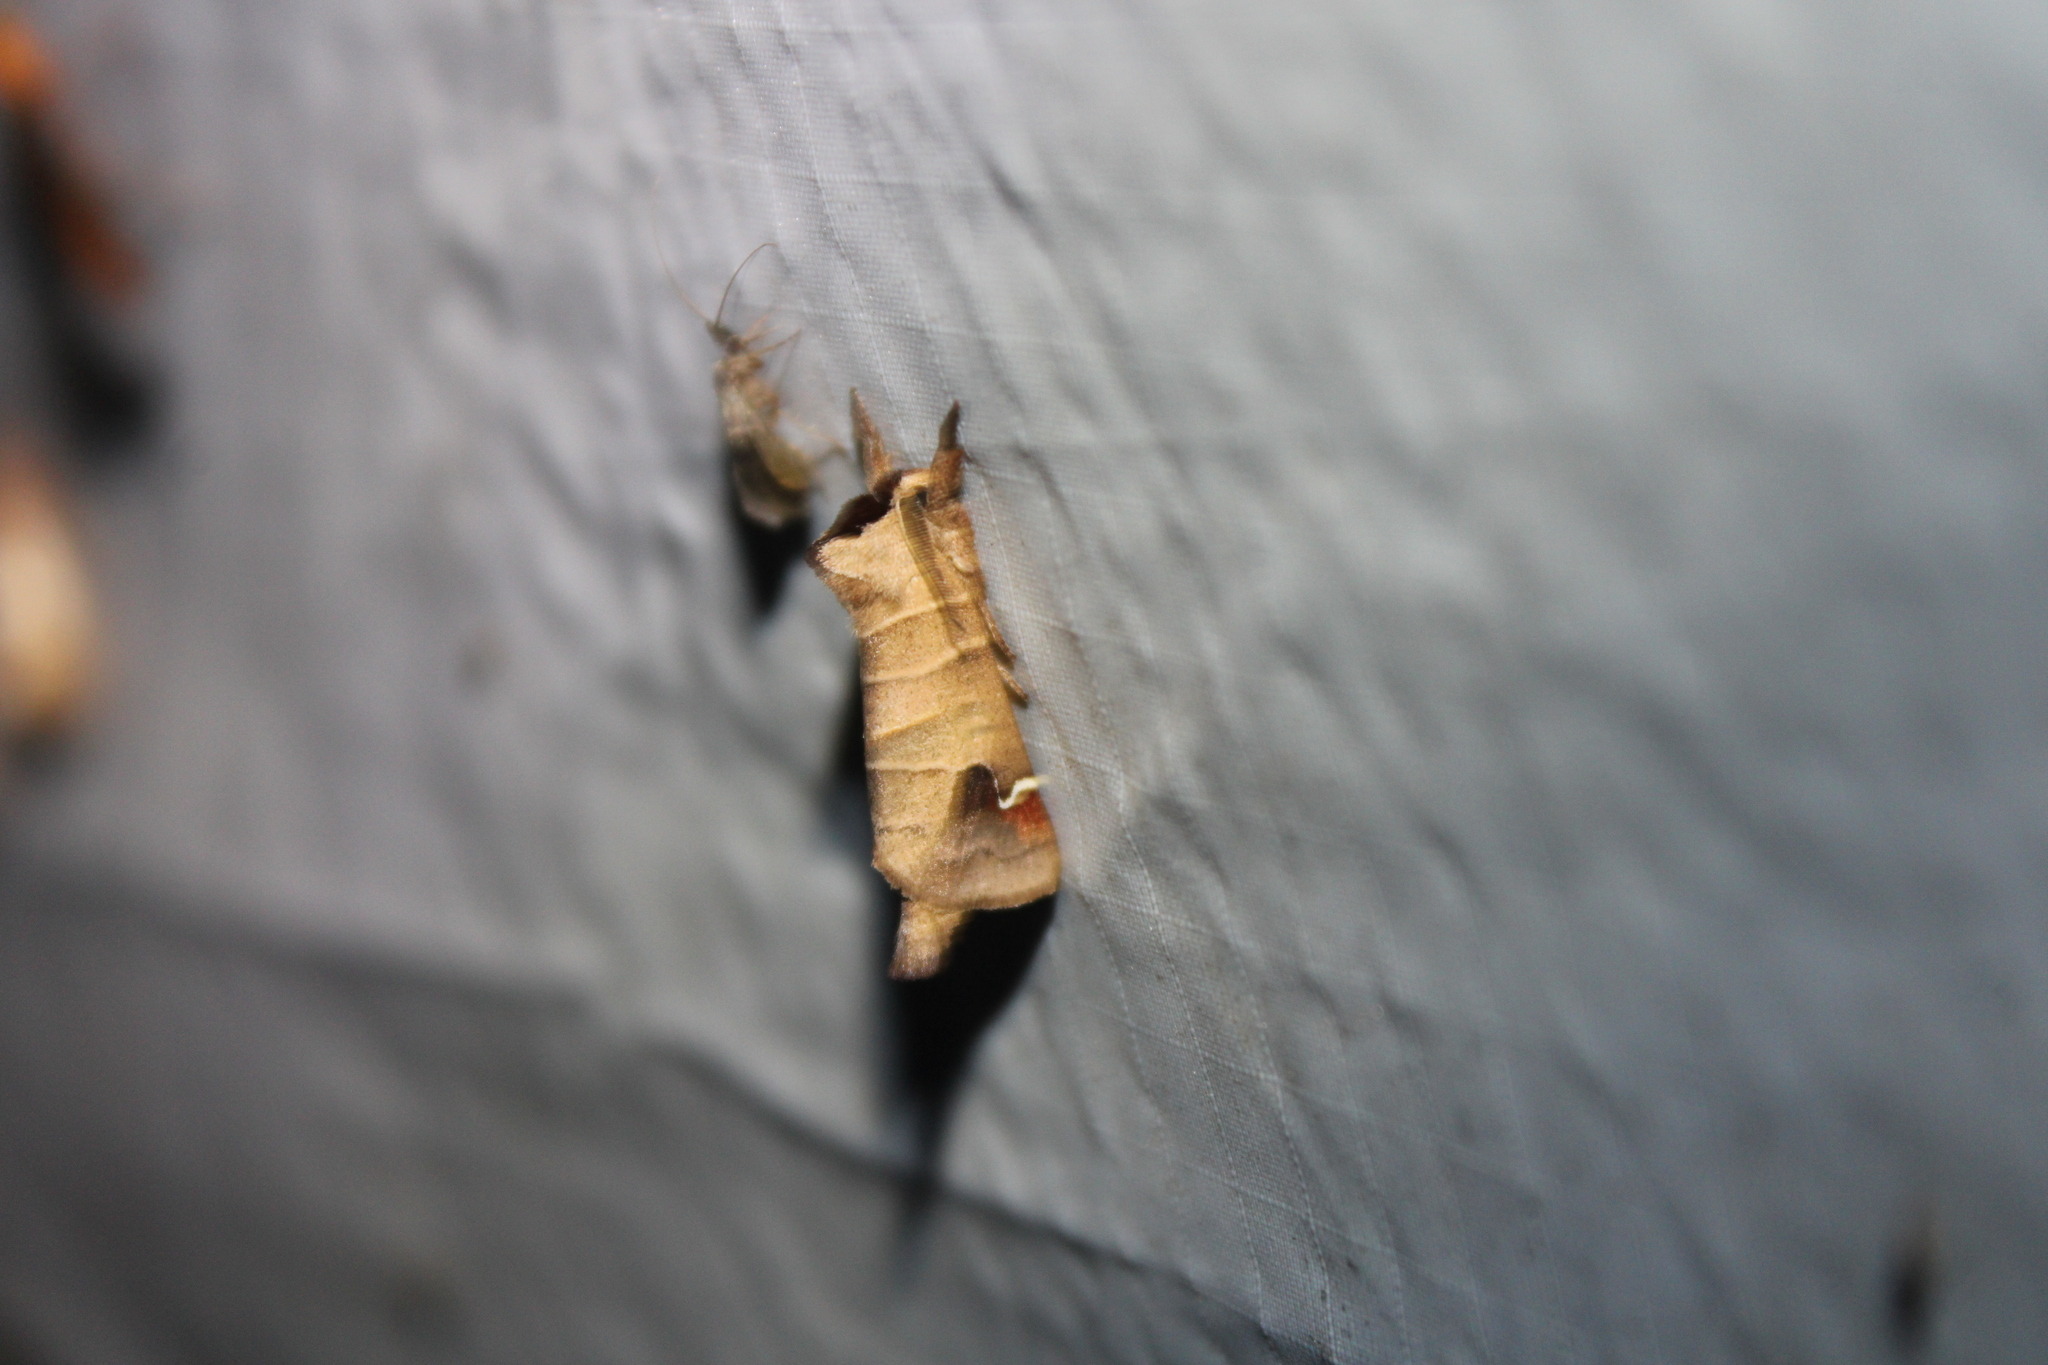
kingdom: Animalia
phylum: Arthropoda
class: Insecta
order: Lepidoptera
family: Notodontidae
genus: Clostera
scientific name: Clostera albosigma
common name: Sigmoid prominent
